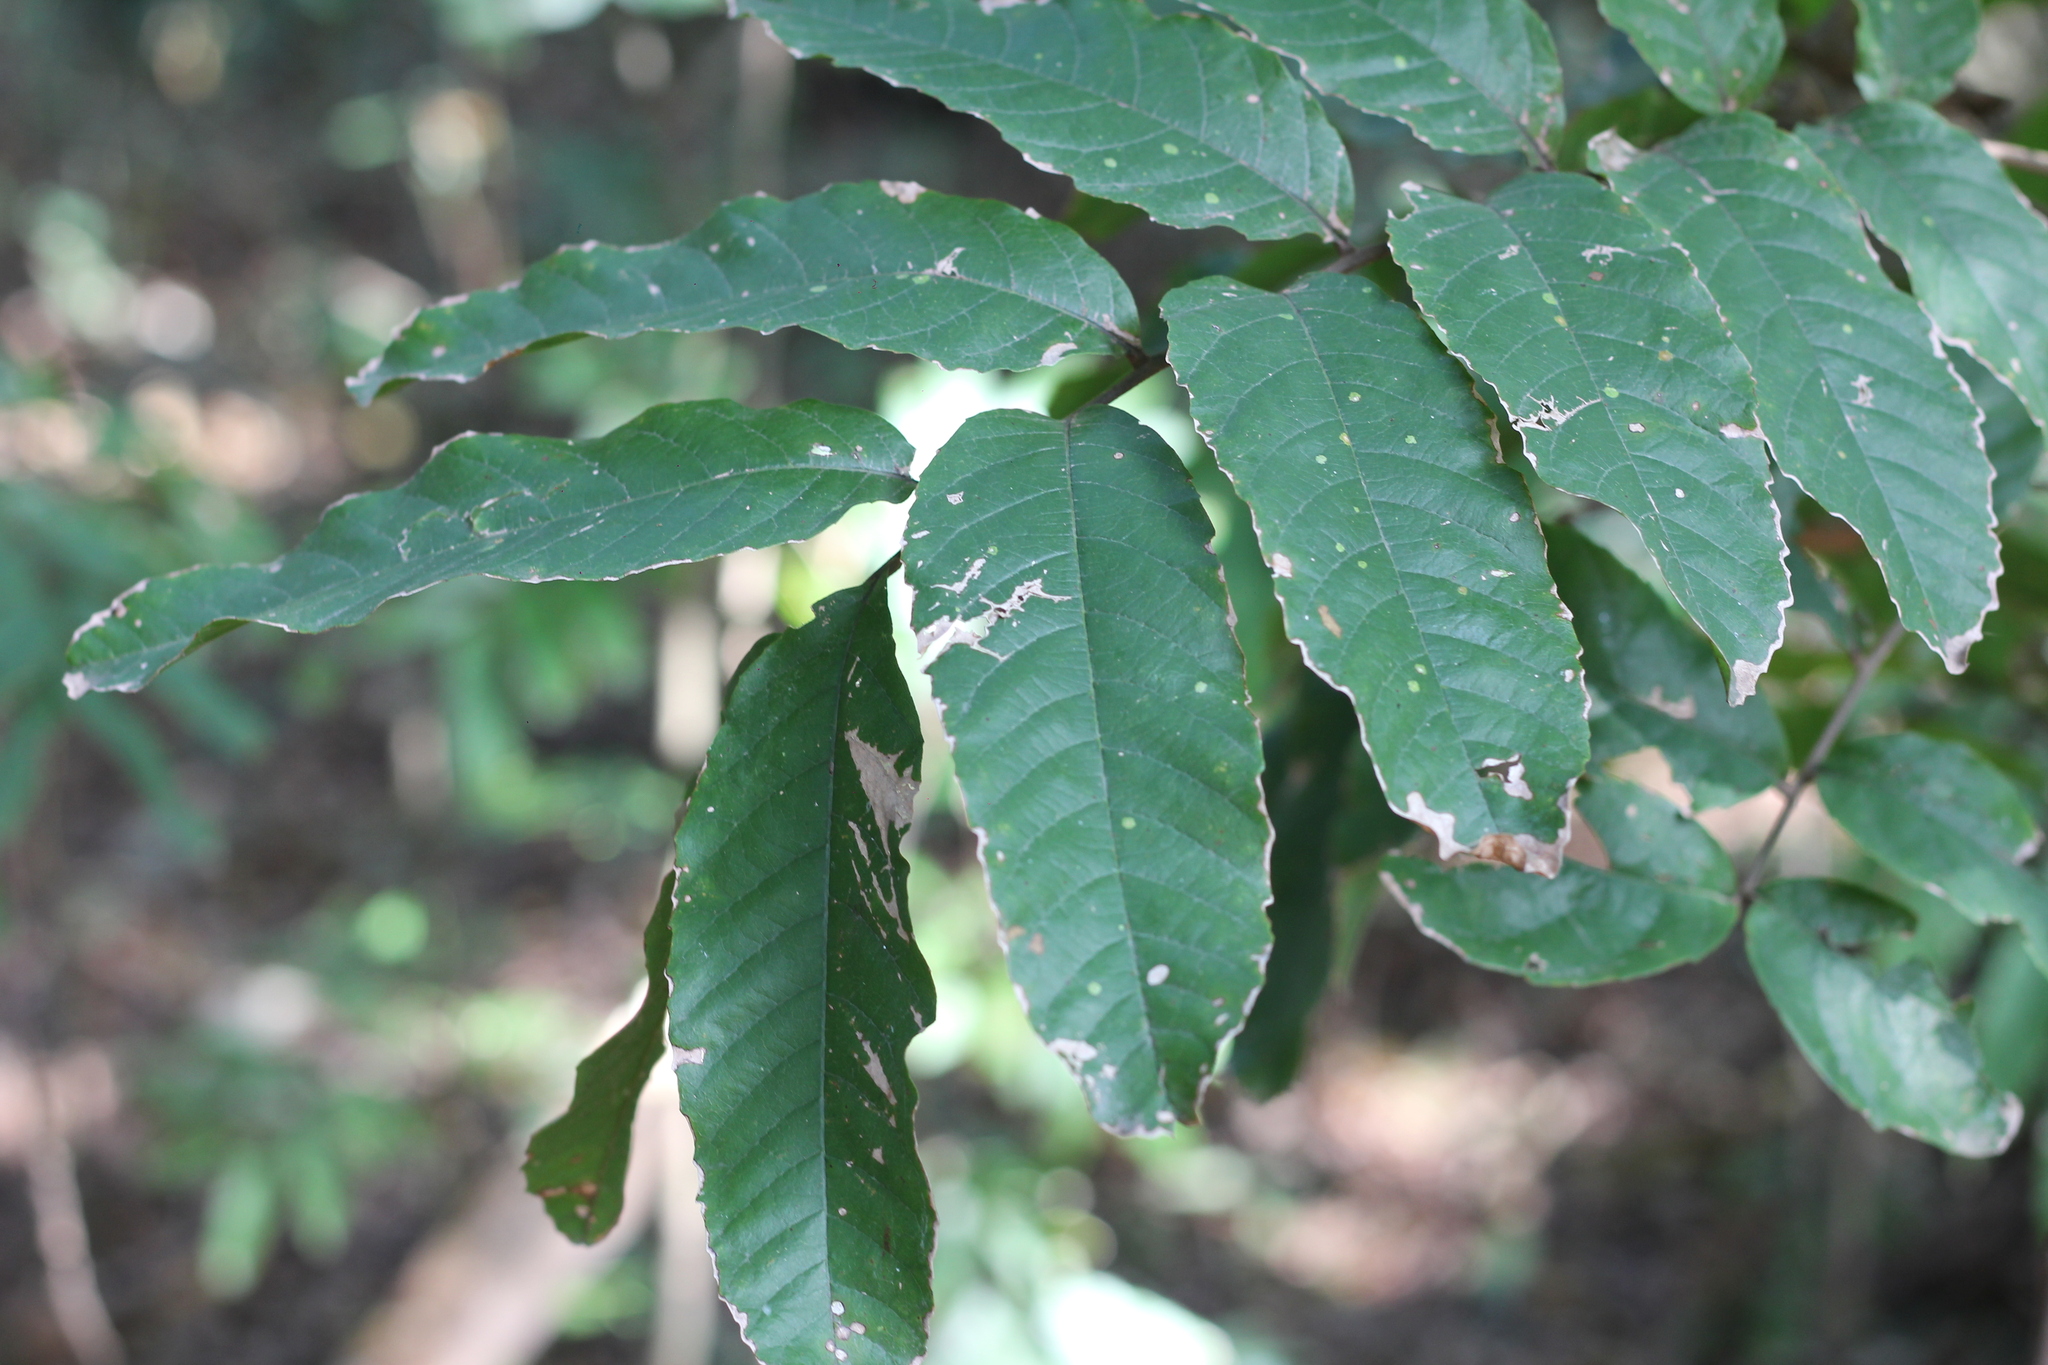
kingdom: Plantae
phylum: Tracheophyta
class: Magnoliopsida
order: Sapindales
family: Sapindaceae
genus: Cupania
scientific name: Cupania vernalis
